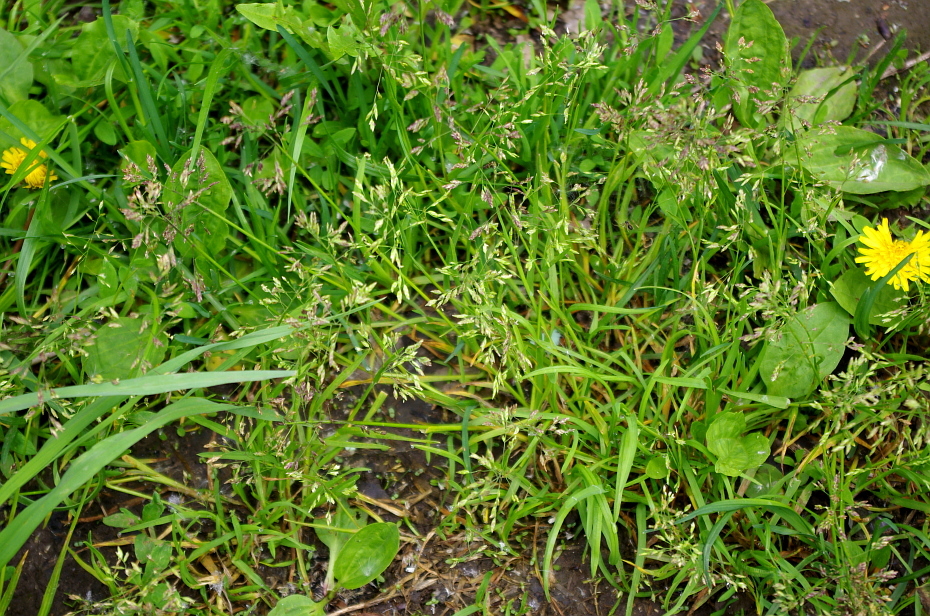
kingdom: Plantae
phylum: Tracheophyta
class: Liliopsida
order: Poales
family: Poaceae
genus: Poa
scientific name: Poa annua
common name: Annual bluegrass
